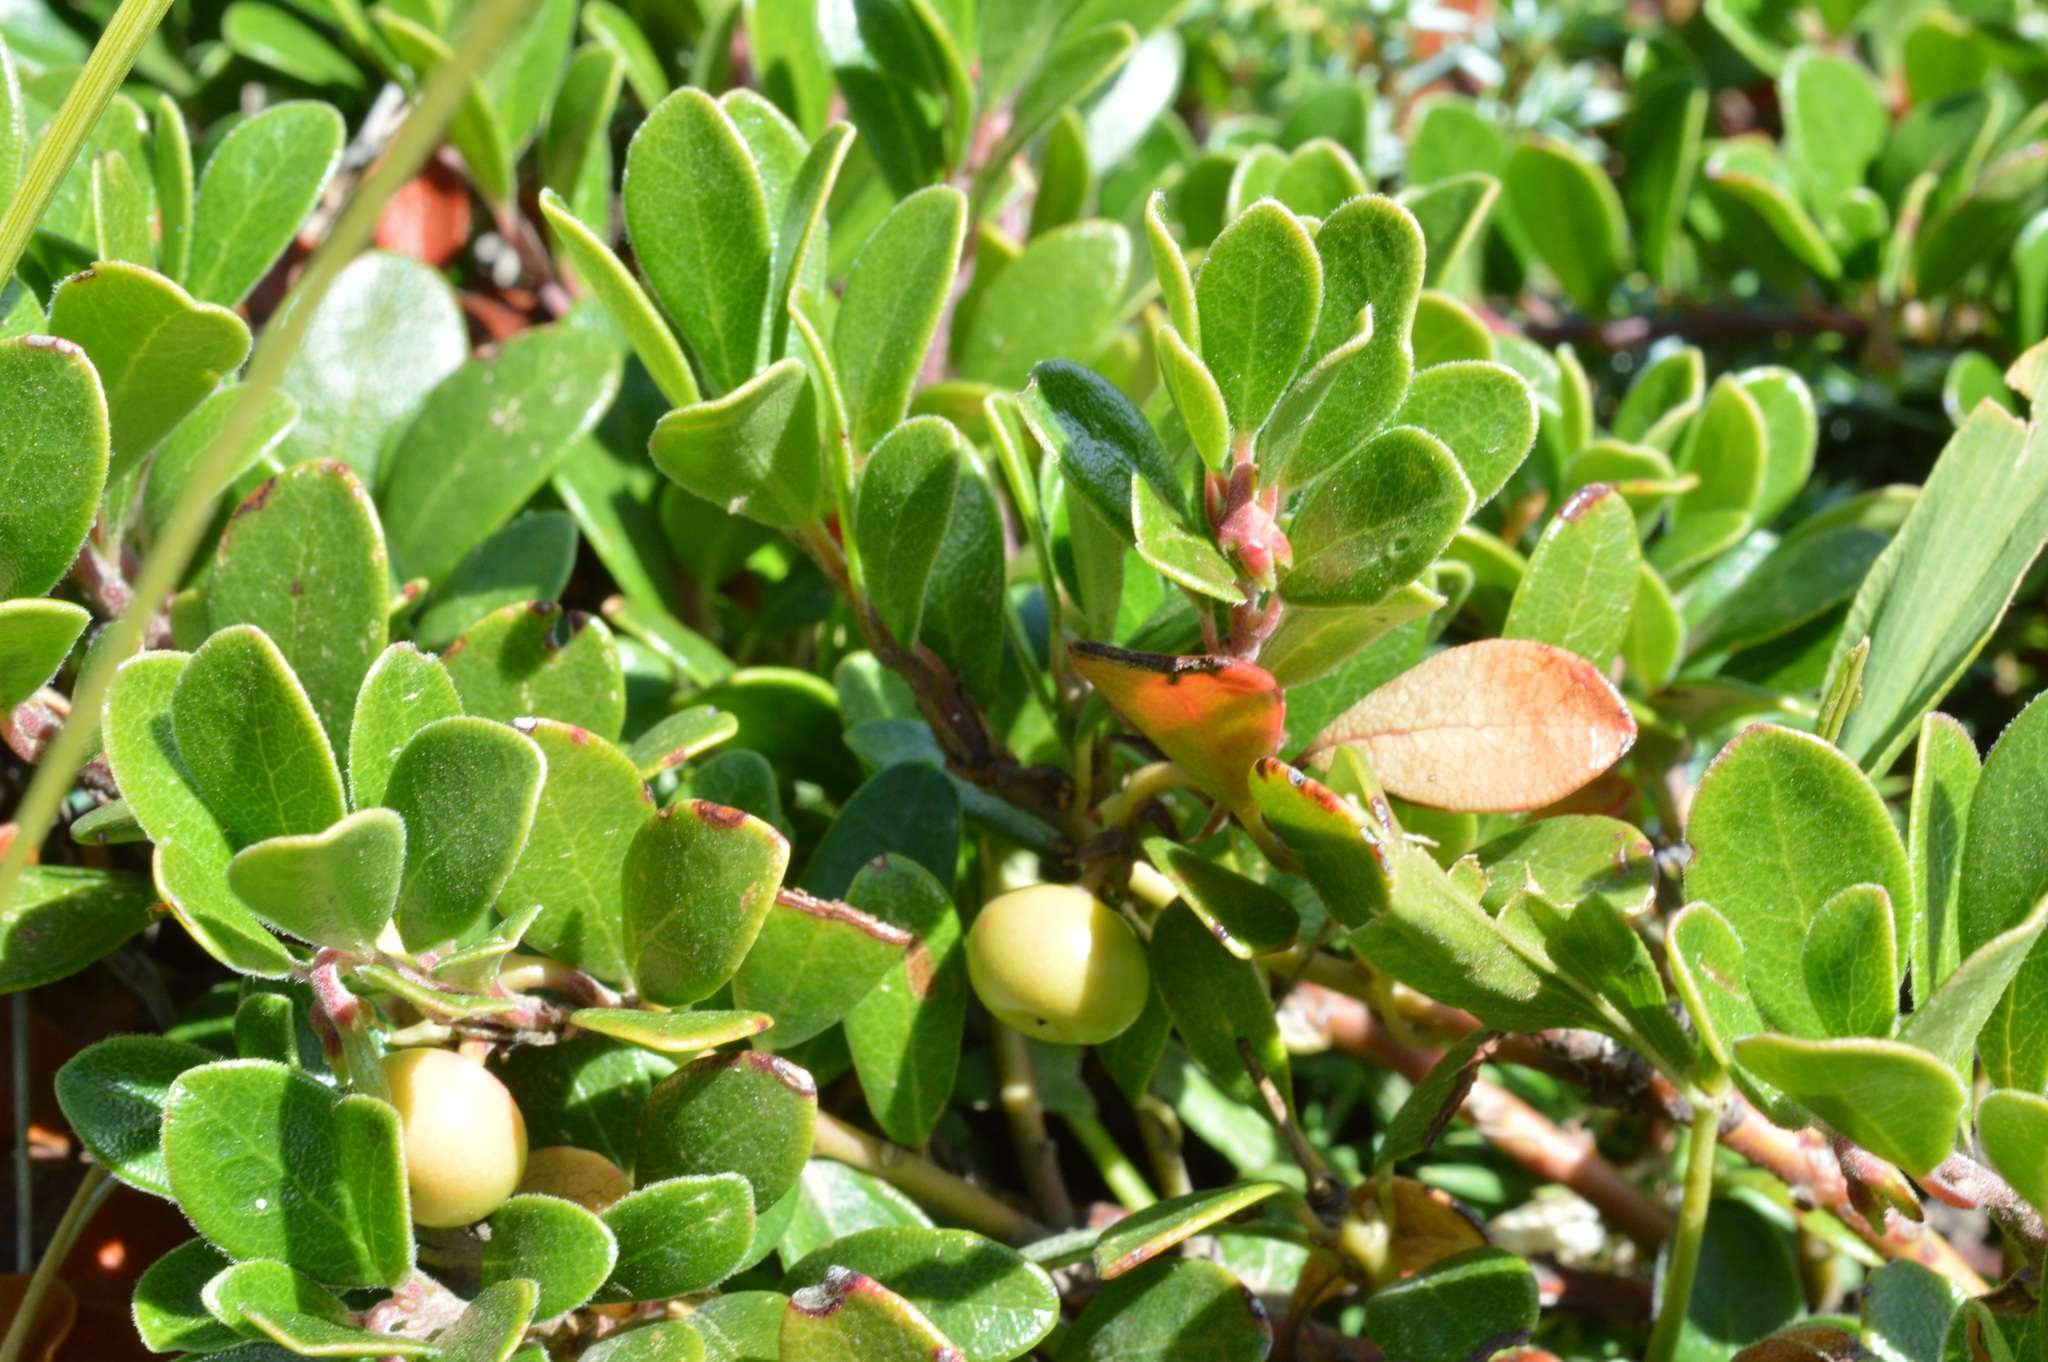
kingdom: Plantae
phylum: Tracheophyta
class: Magnoliopsida
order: Ericales
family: Ericaceae
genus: Arctostaphylos
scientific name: Arctostaphylos uva-ursi
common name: Bearberry
